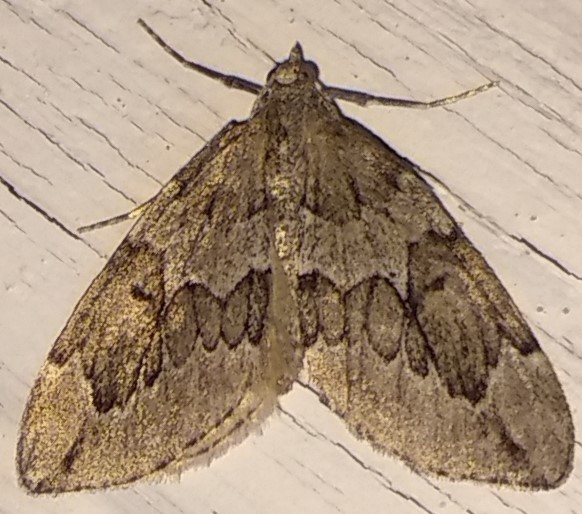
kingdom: Animalia
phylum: Arthropoda
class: Insecta
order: Lepidoptera
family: Geometridae
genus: Thera
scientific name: Thera juniperata
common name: Juniper carpet
